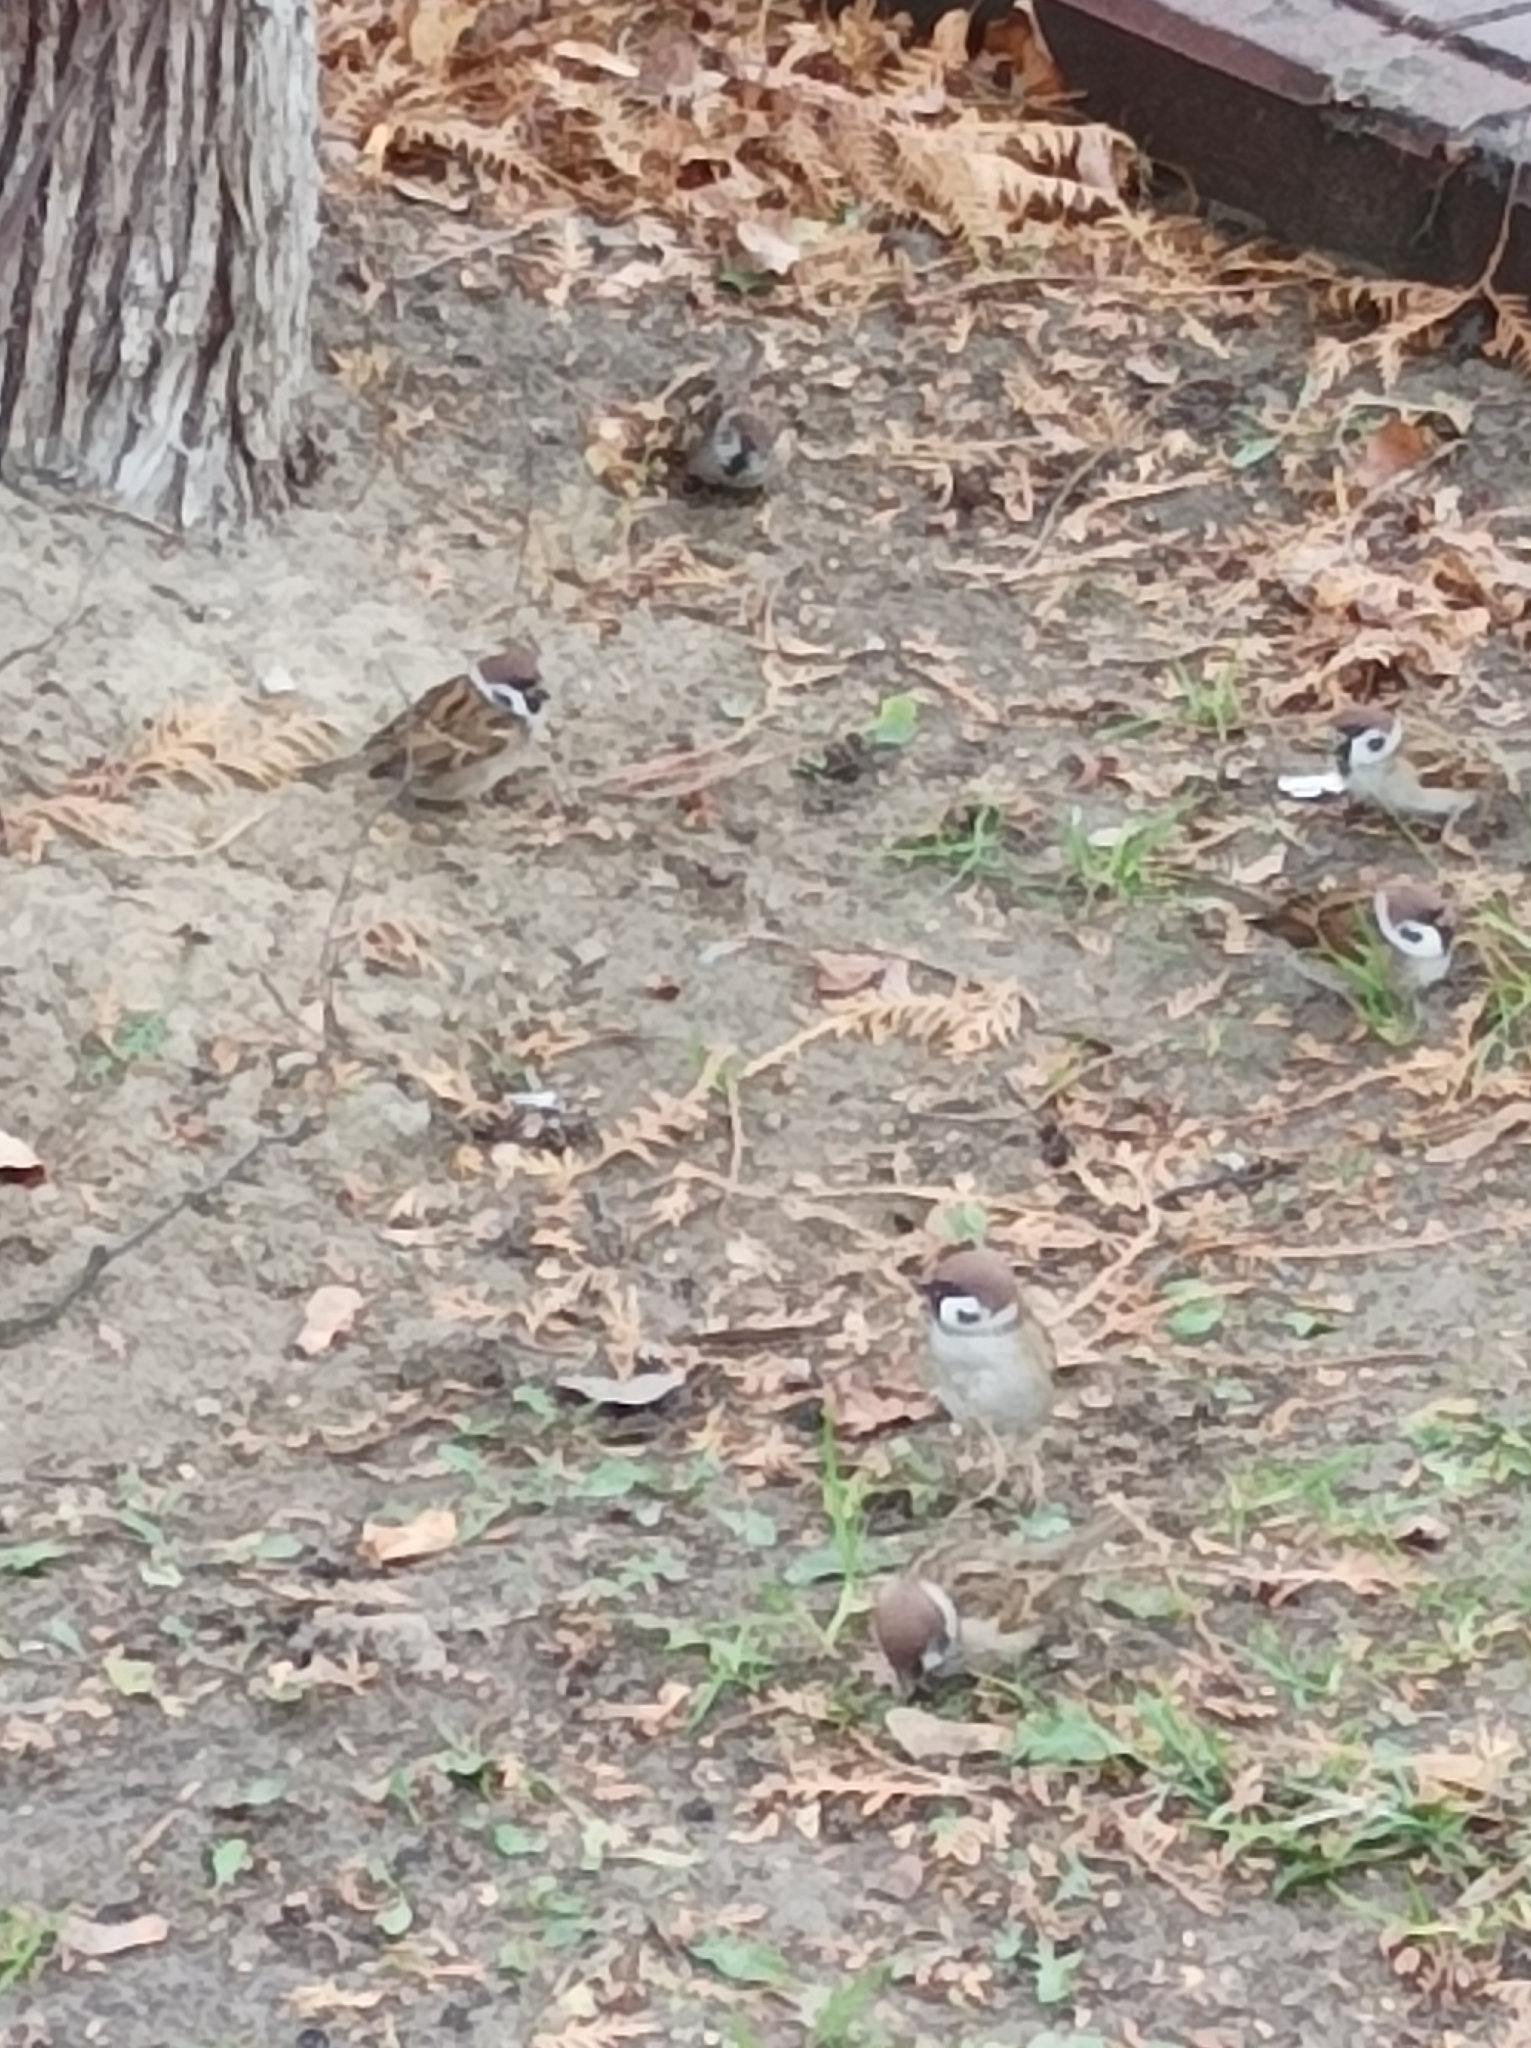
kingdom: Animalia
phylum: Chordata
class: Aves
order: Passeriformes
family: Passeridae
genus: Passer
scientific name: Passer montanus
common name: Eurasian tree sparrow
